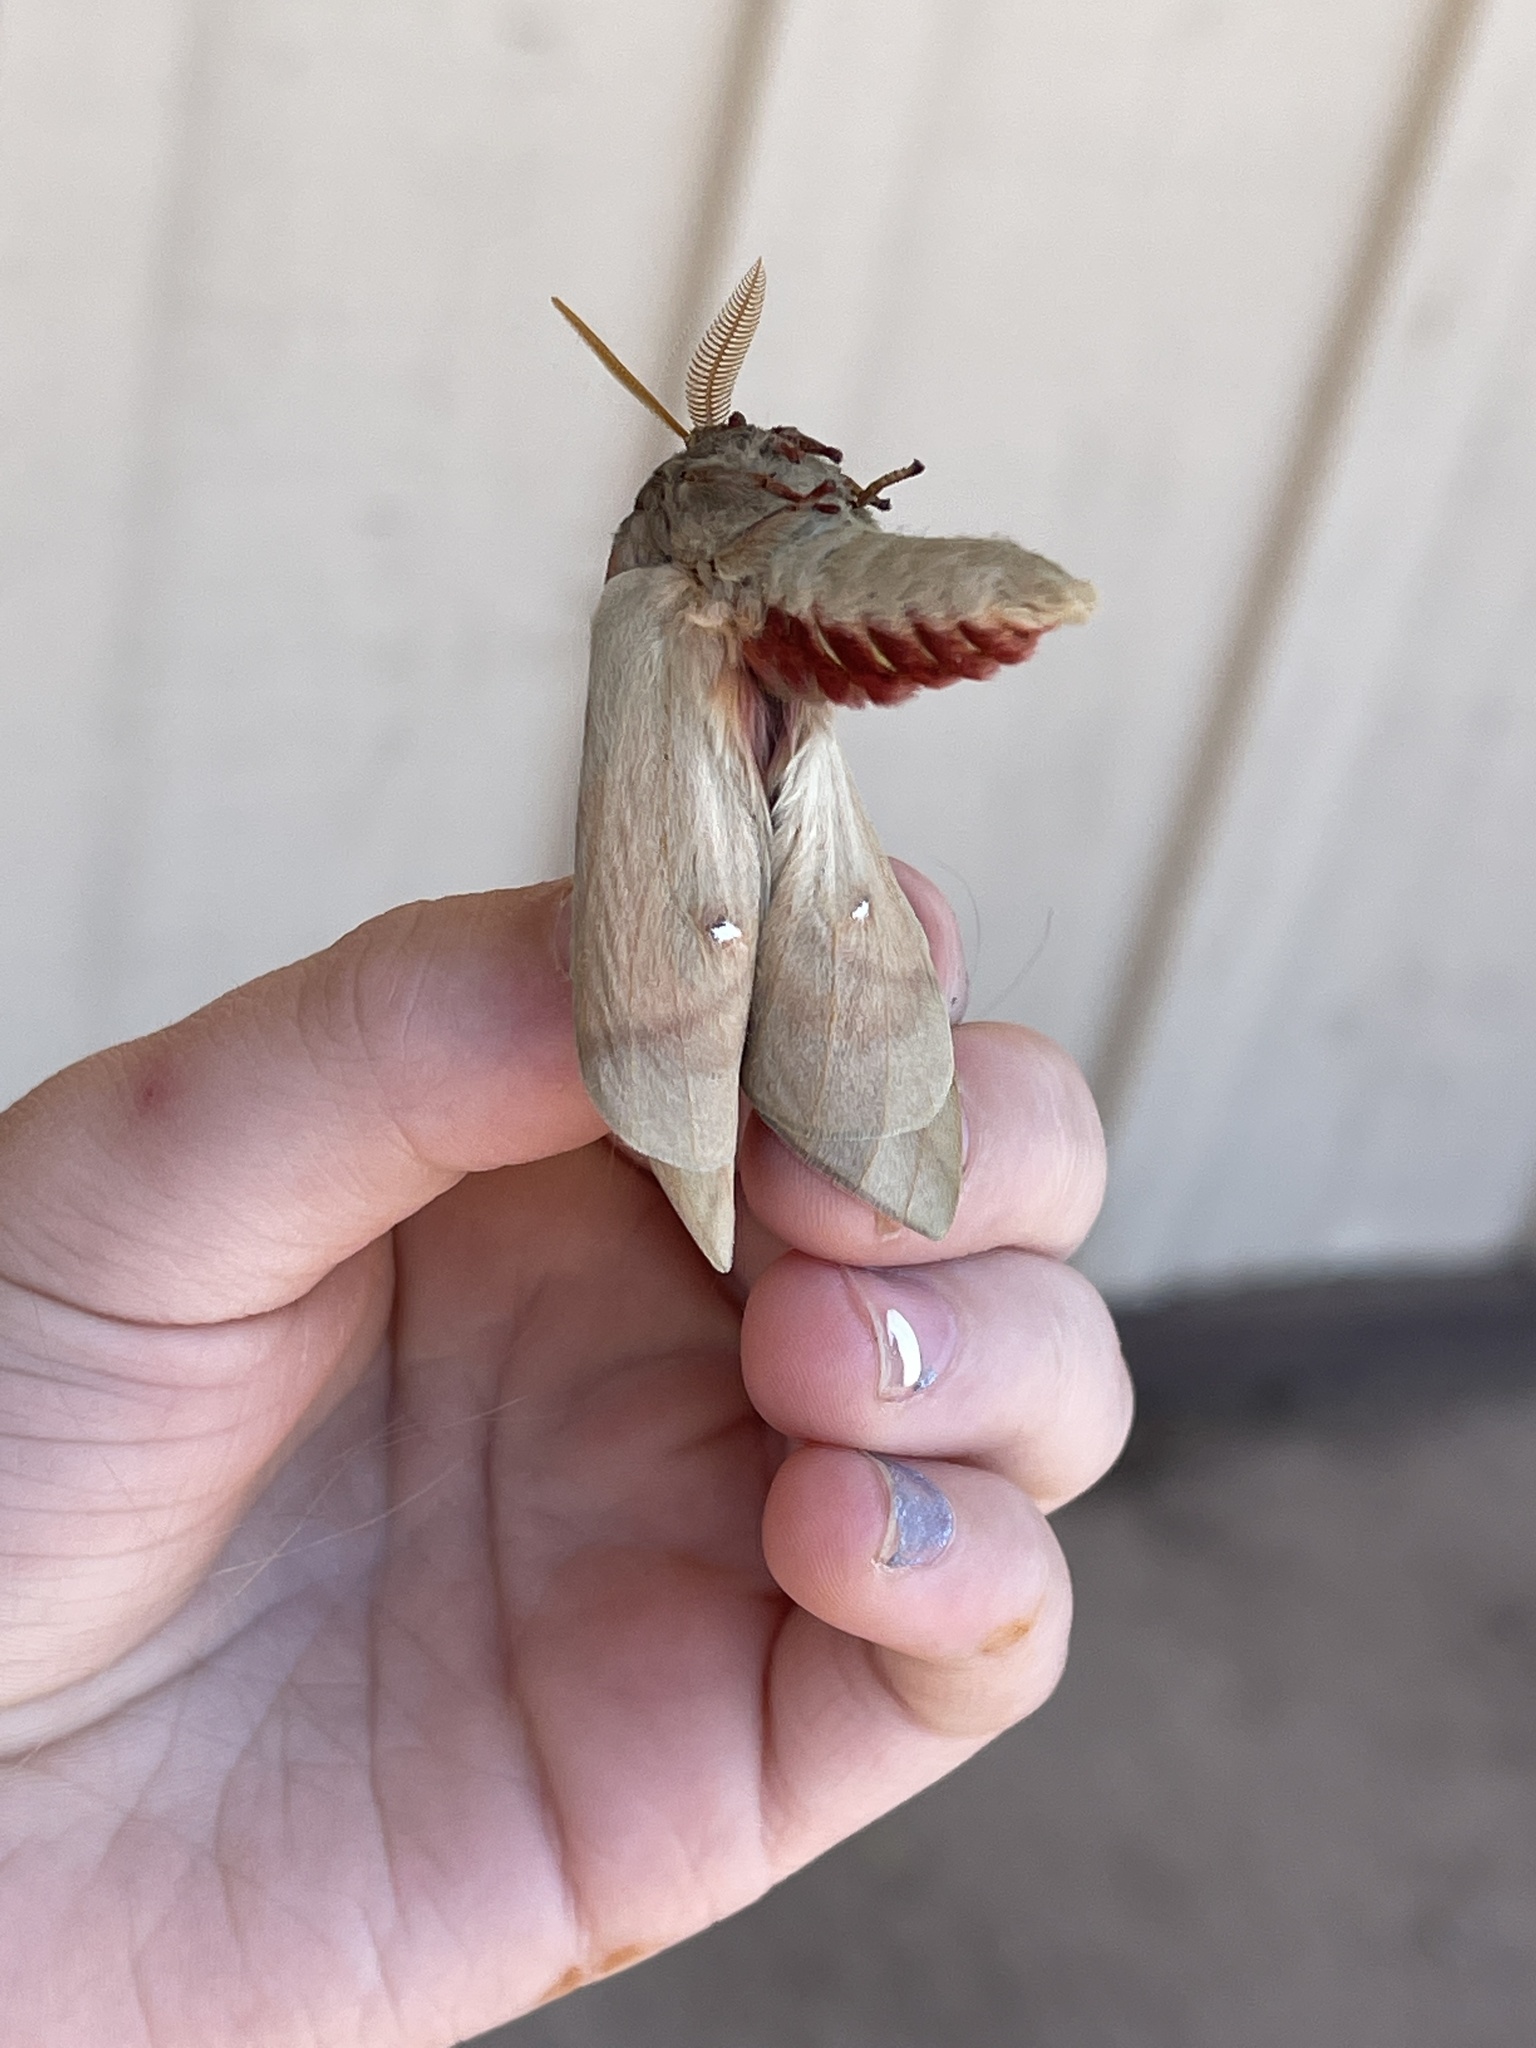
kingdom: Animalia
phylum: Arthropoda
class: Insecta
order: Lepidoptera
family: Saturniidae
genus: Automeris
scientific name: Automeris zephyria
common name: Zephyr eyed silkmoth
